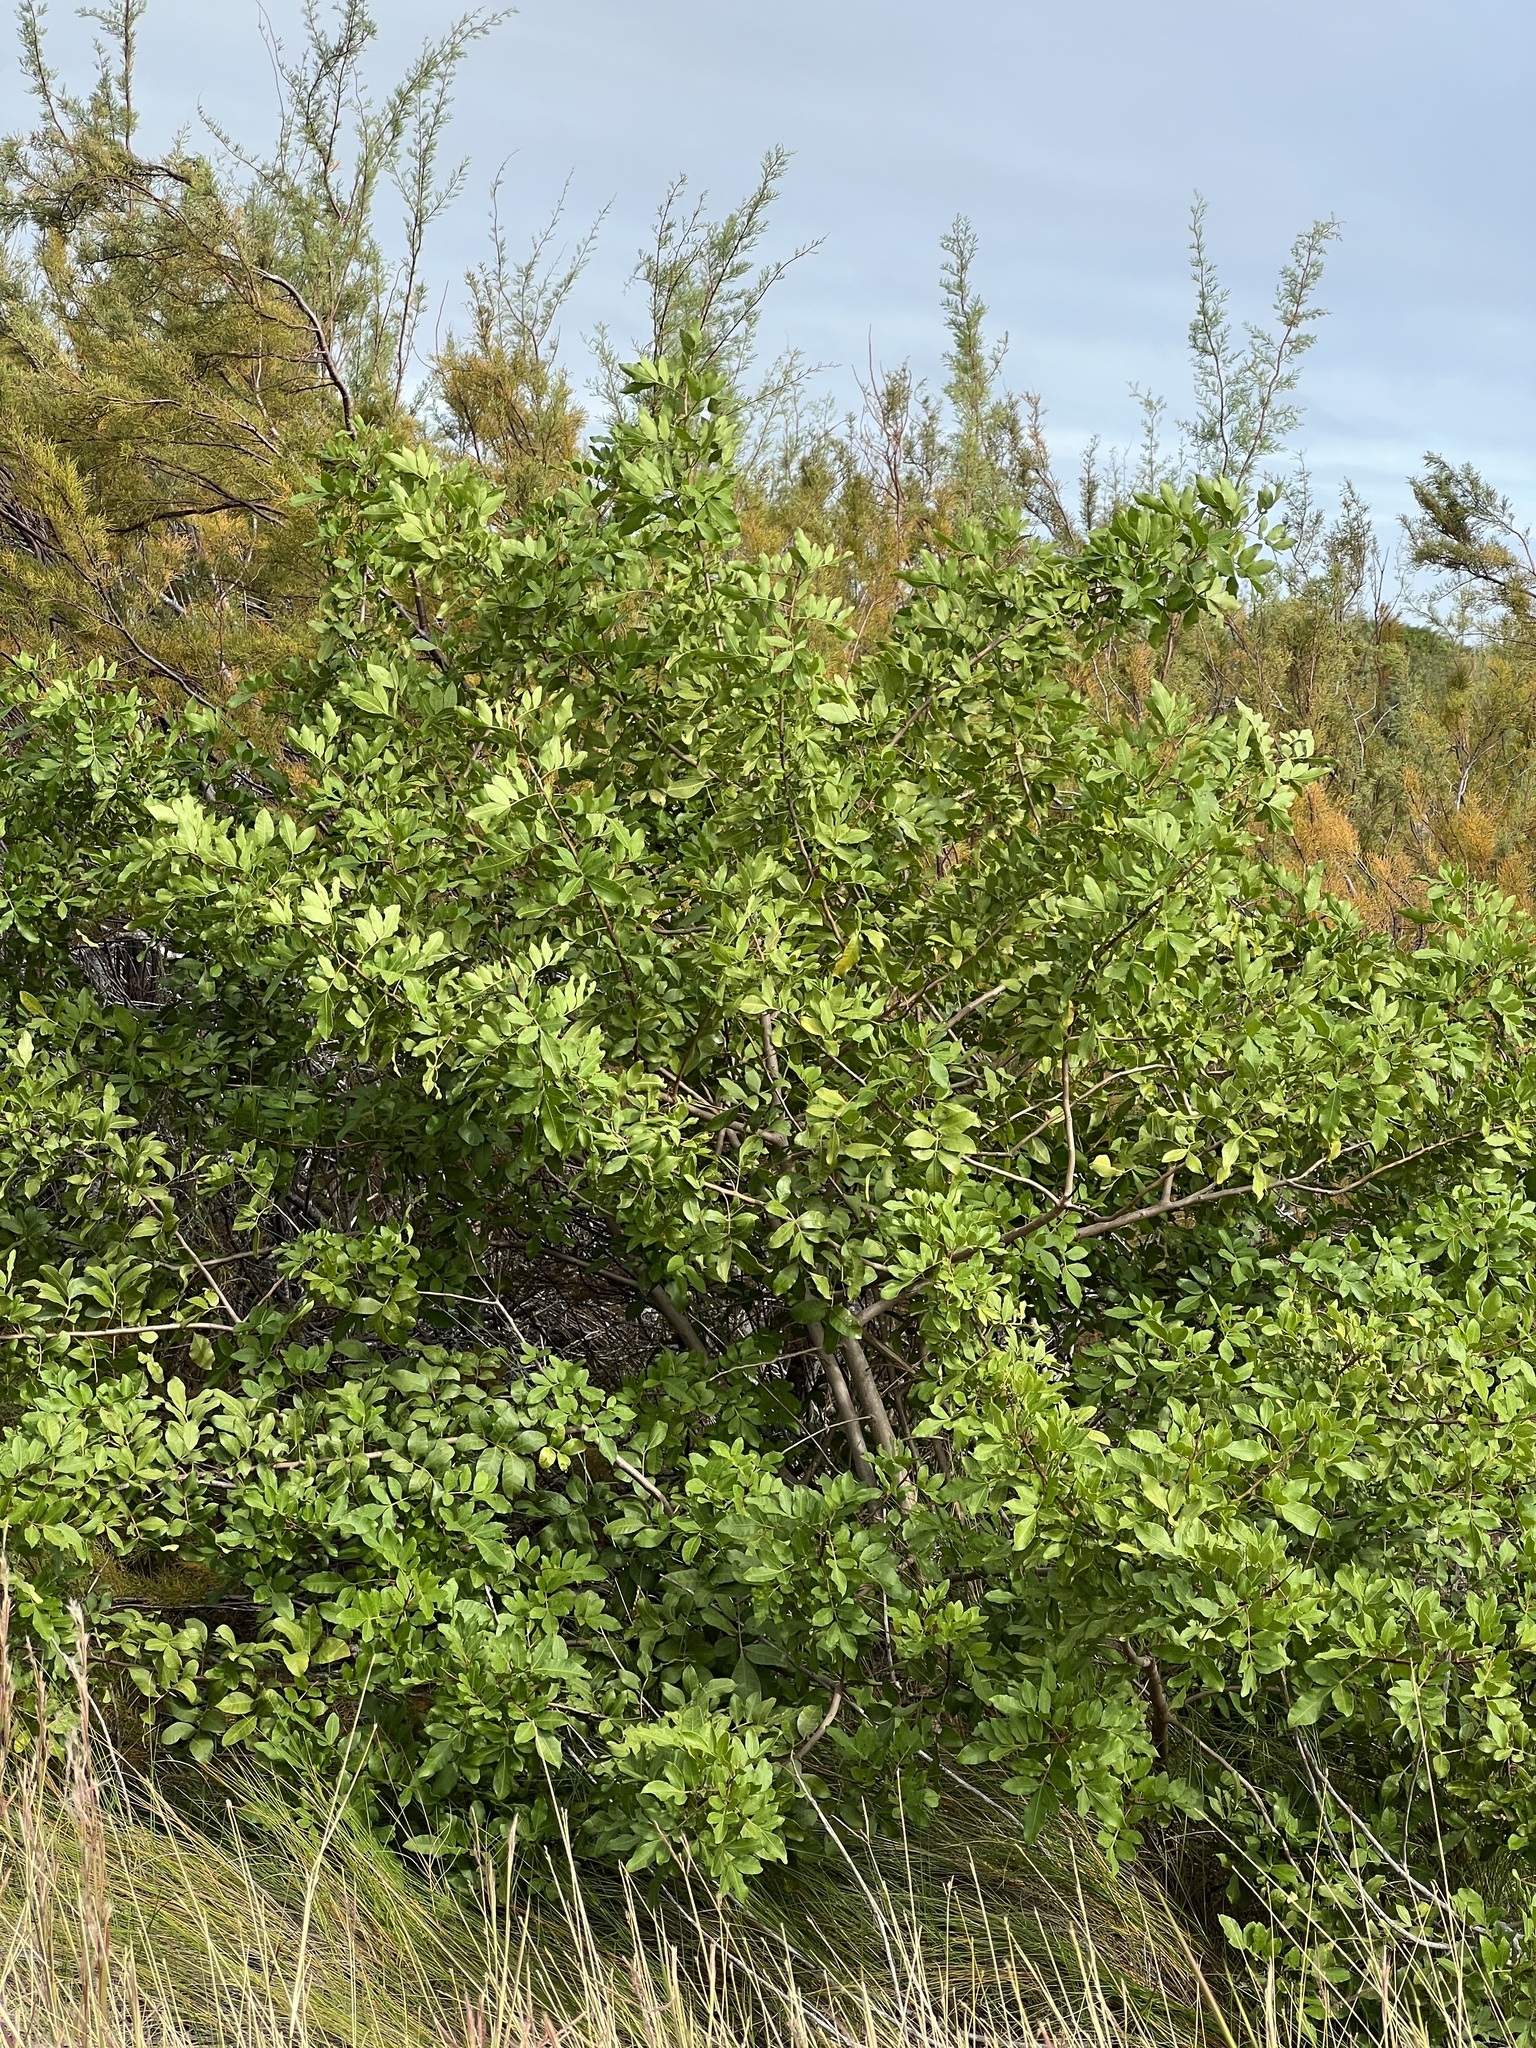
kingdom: Plantae
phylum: Tracheophyta
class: Magnoliopsida
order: Sapindales
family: Anacardiaceae
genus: Schinus
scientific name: Schinus terebinthifolia
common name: Brazilian peppertree
